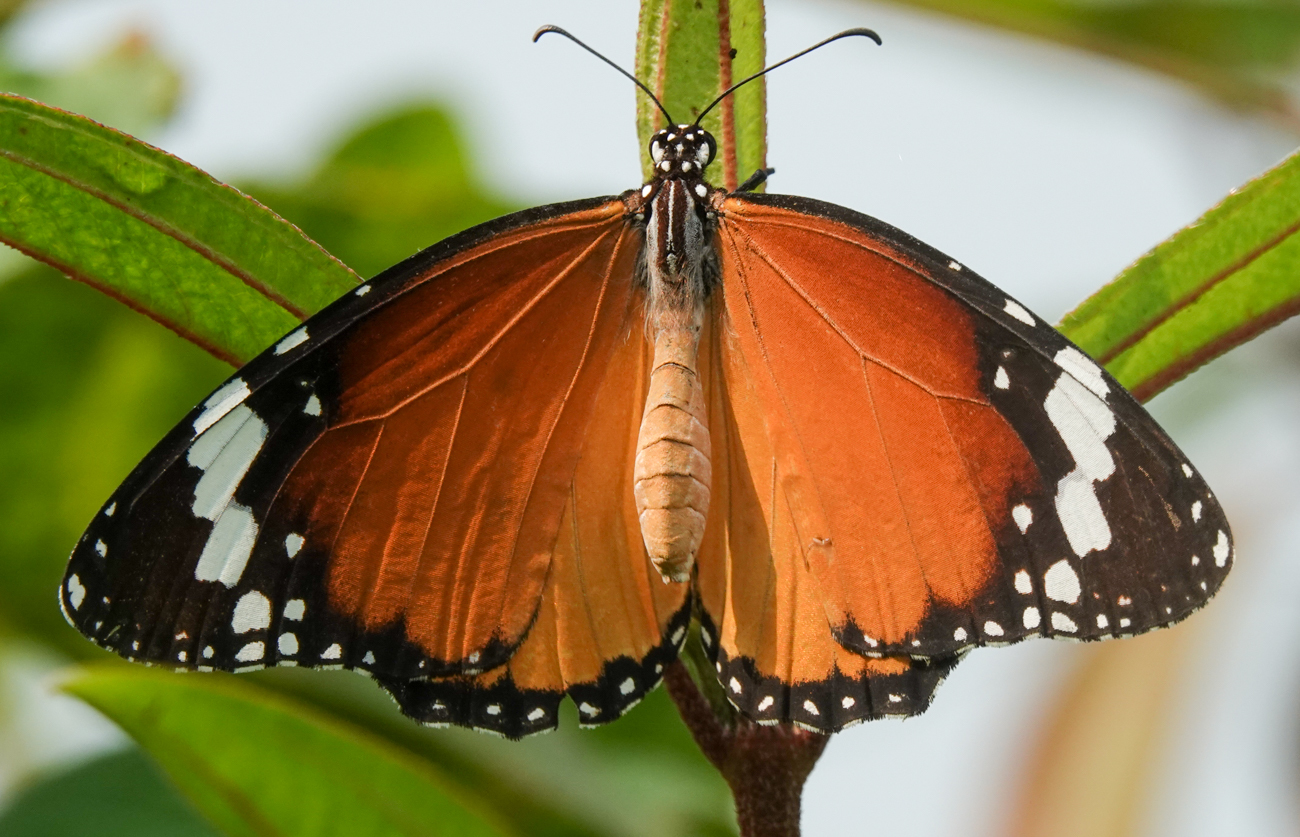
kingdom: Animalia
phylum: Arthropoda
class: Insecta
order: Lepidoptera
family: Nymphalidae
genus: Danaus
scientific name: Danaus chrysippus
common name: Plain tiger
